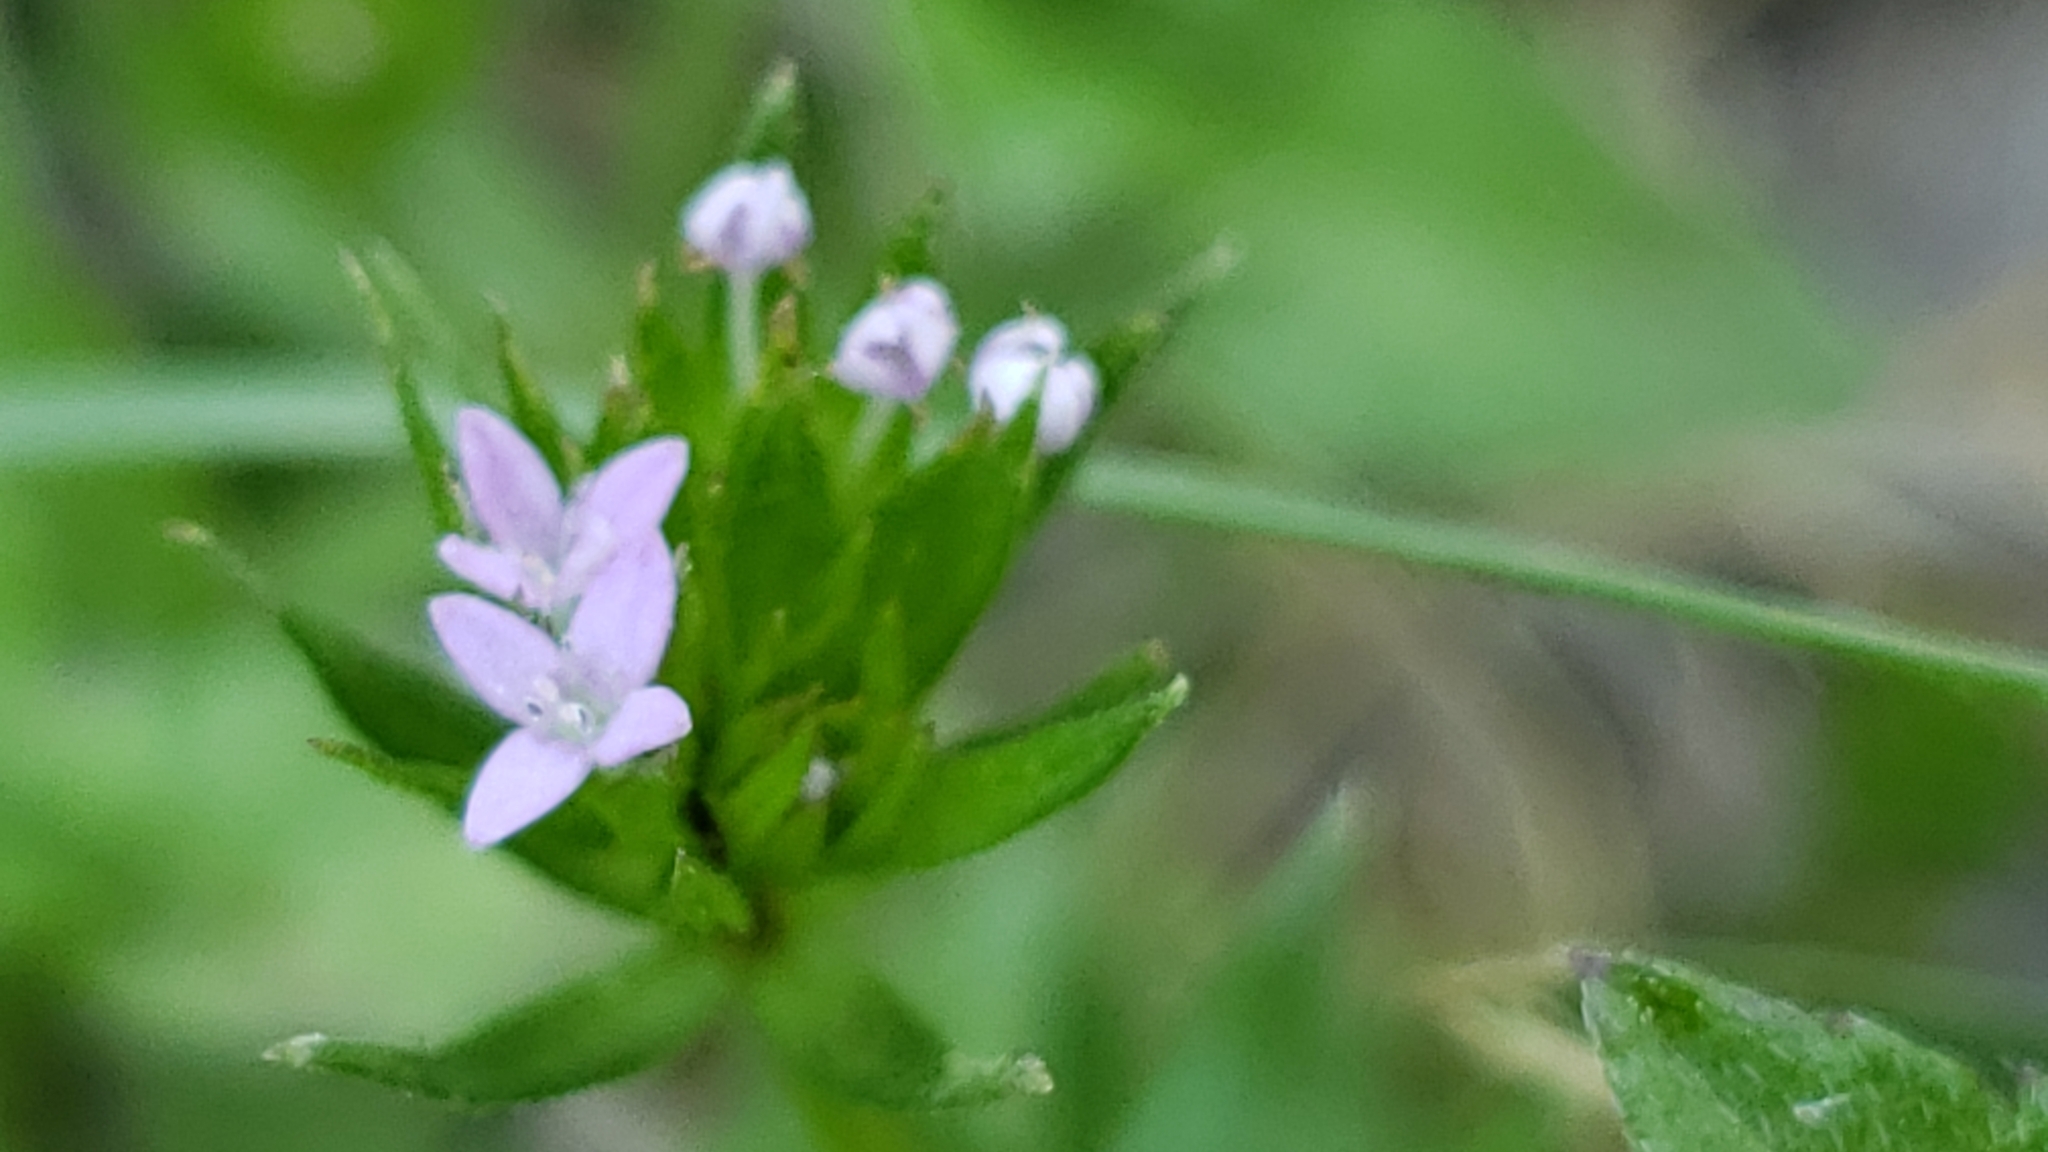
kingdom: Plantae
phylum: Tracheophyta
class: Magnoliopsida
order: Gentianales
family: Rubiaceae
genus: Sherardia
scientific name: Sherardia arvensis
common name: Field madder
